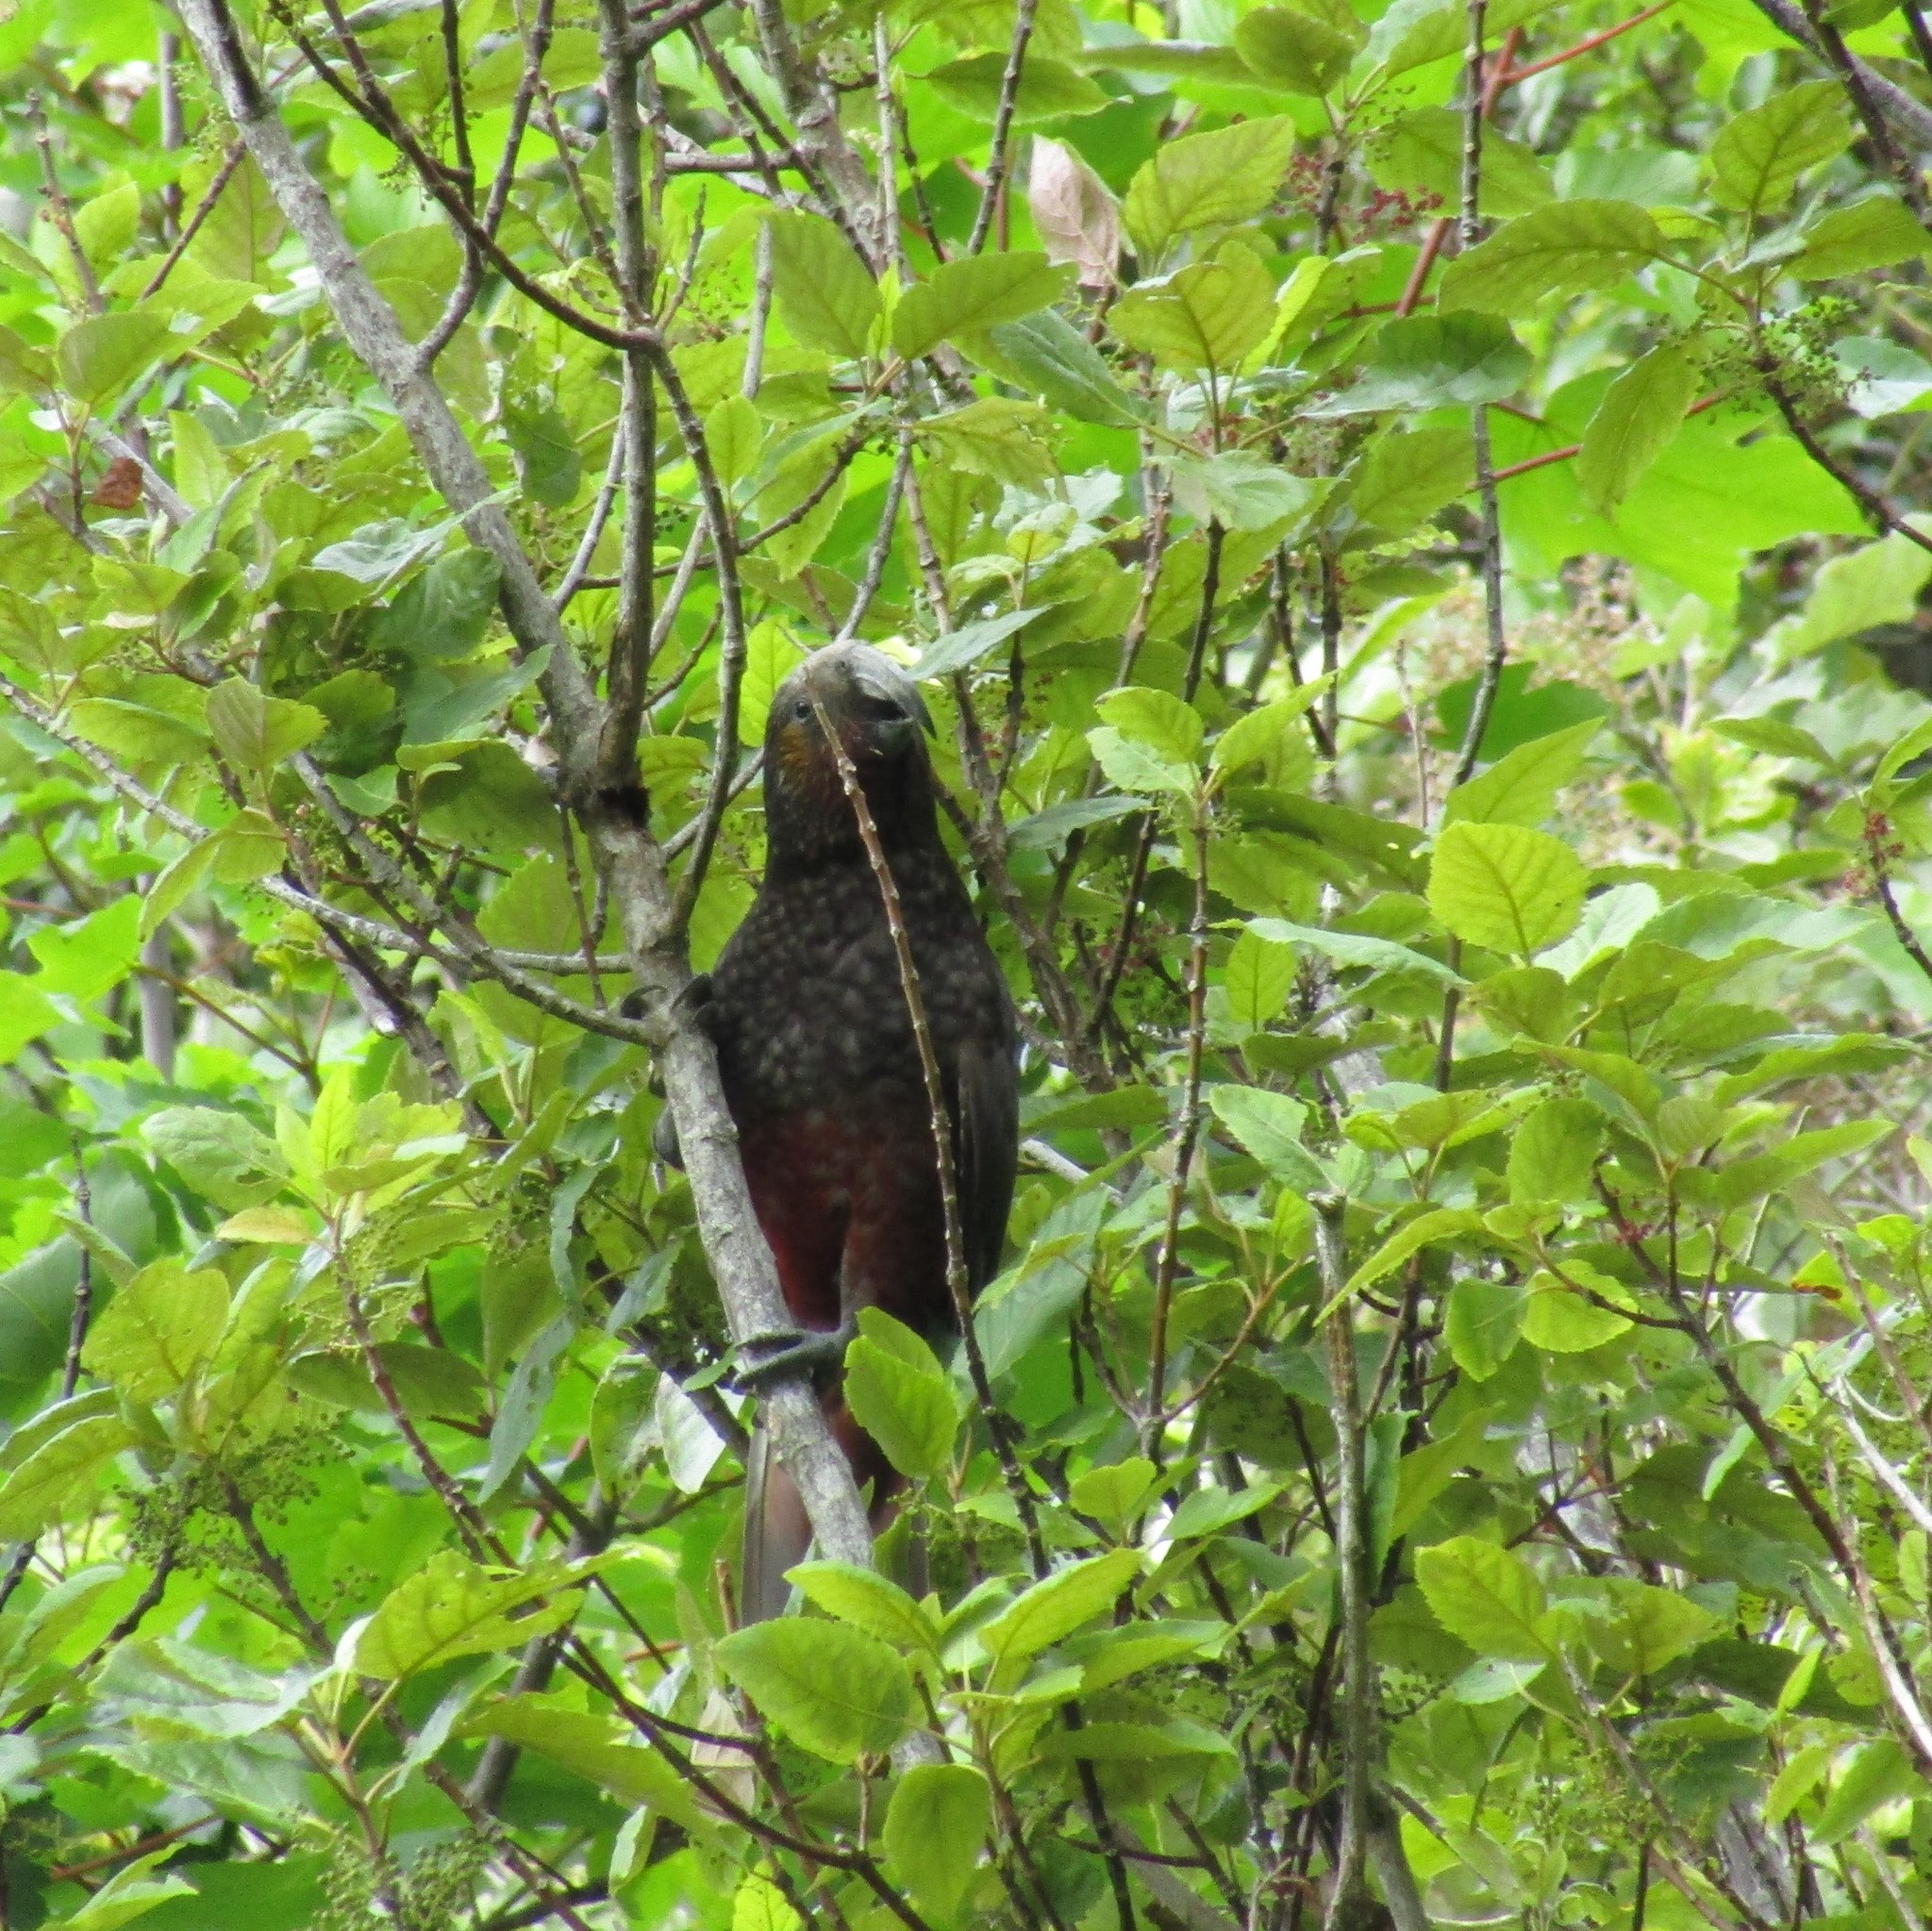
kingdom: Animalia
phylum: Chordata
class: Aves
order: Psittaciformes
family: Psittacidae
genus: Nestor
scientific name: Nestor meridionalis
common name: New zealand kaka
